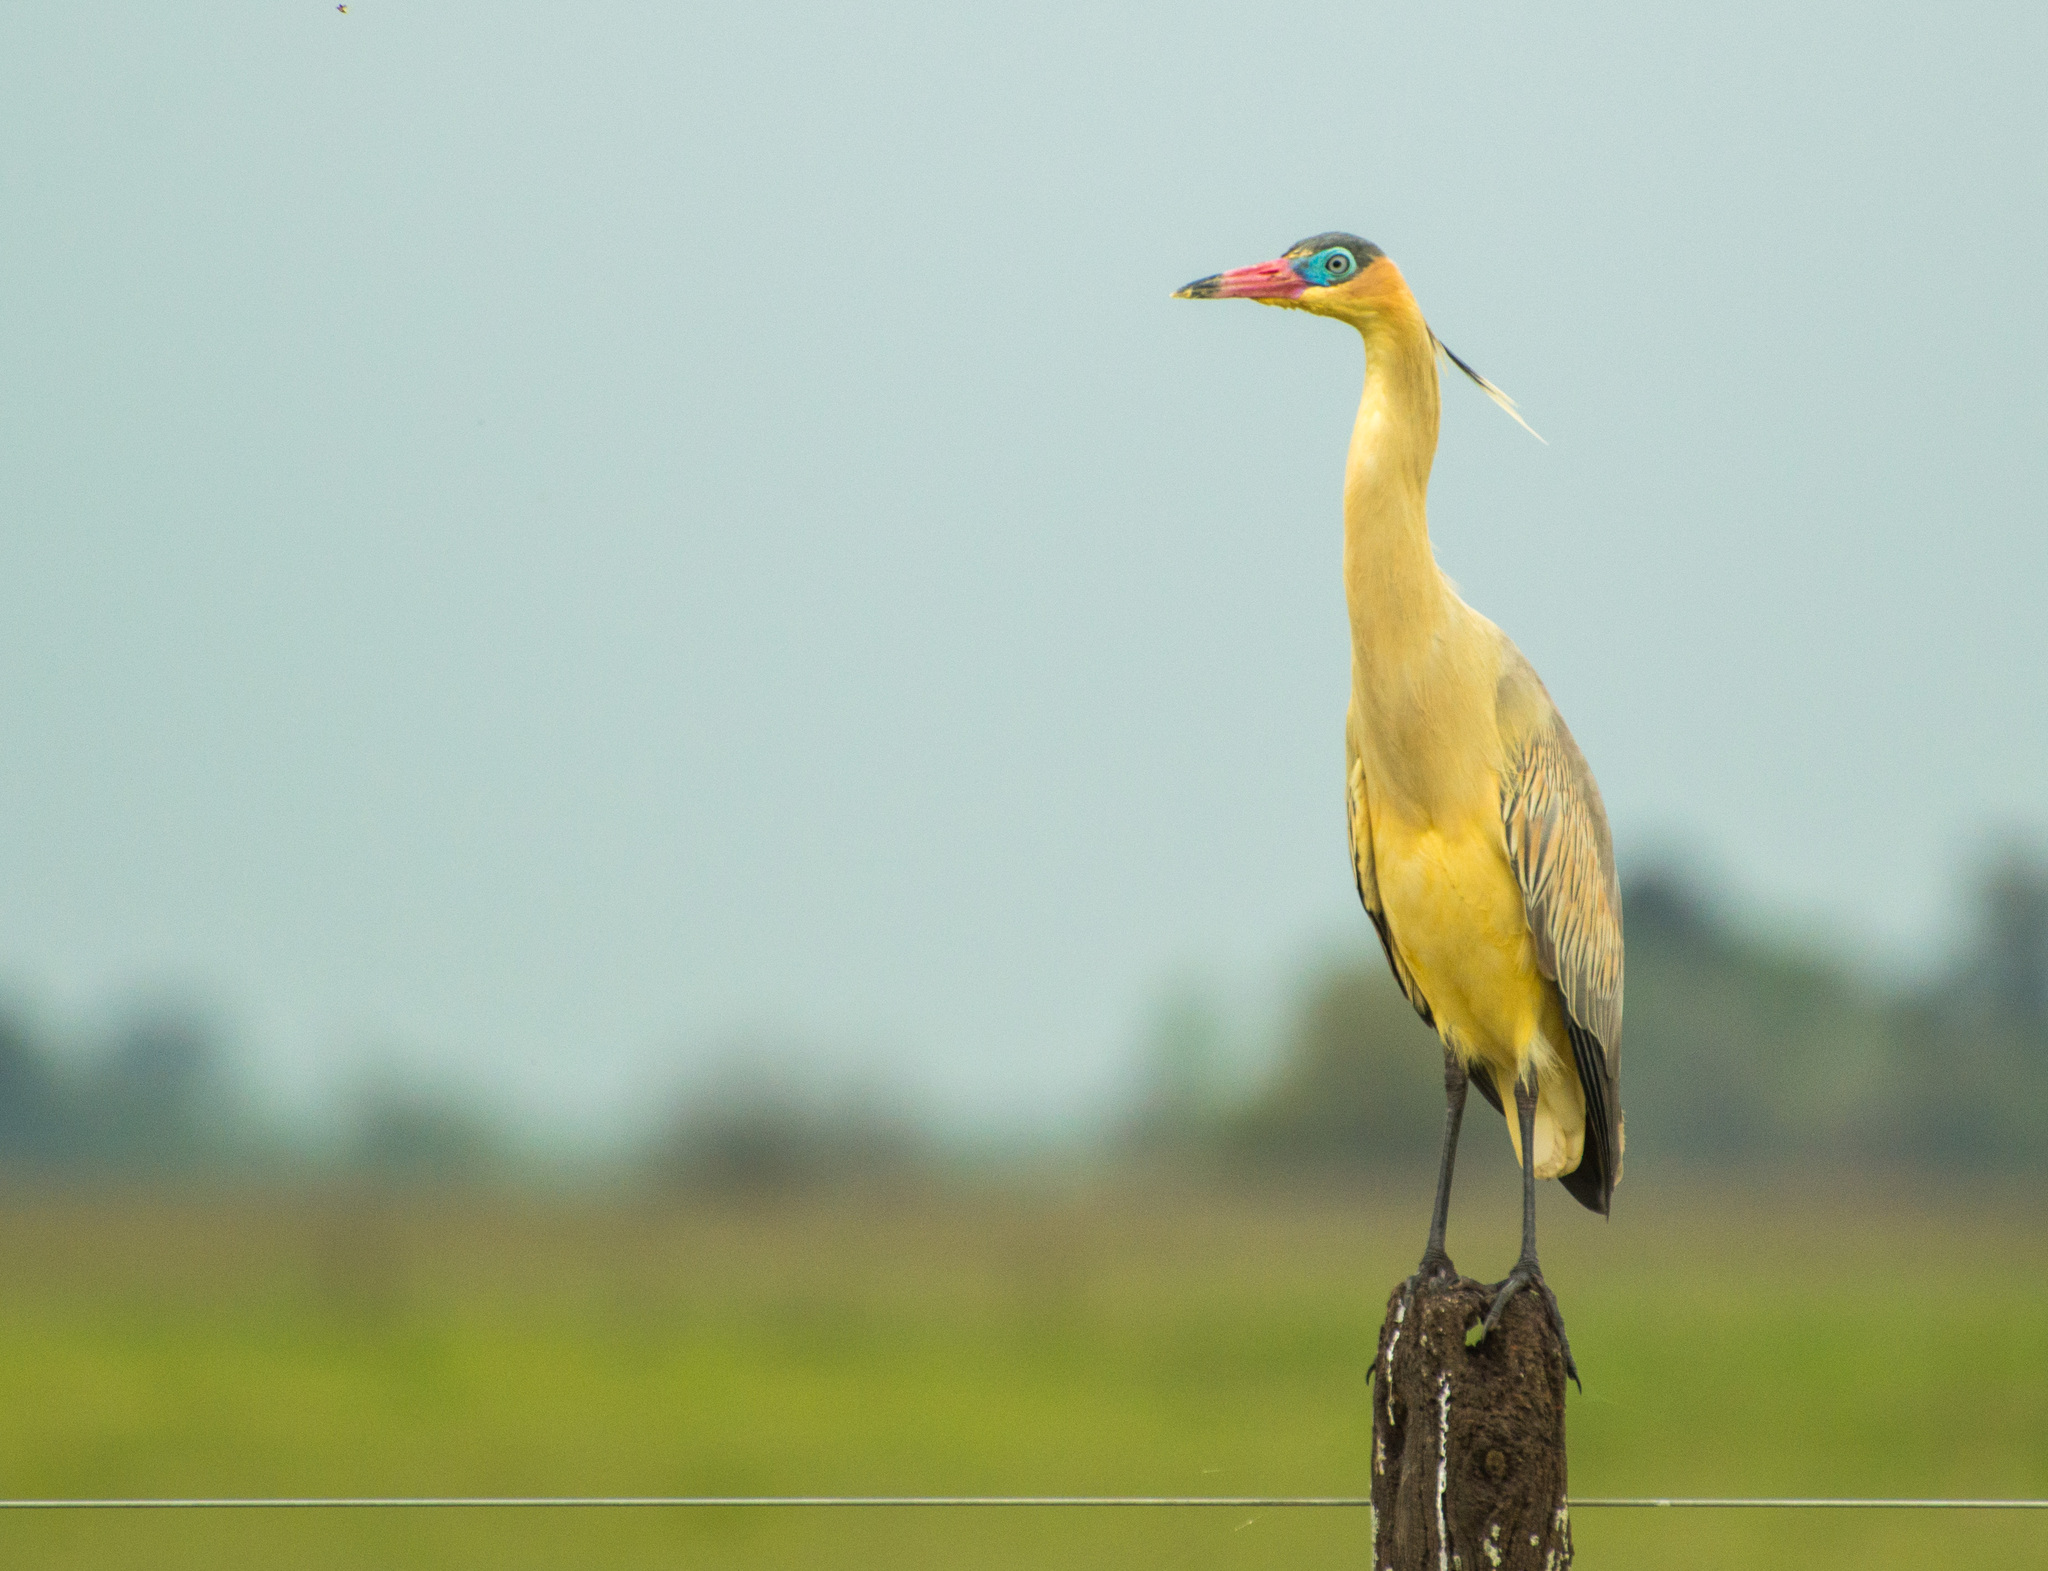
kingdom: Animalia
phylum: Chordata
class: Aves
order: Pelecaniformes
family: Ardeidae
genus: Syrigma
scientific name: Syrigma sibilatrix
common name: Whistling heron
